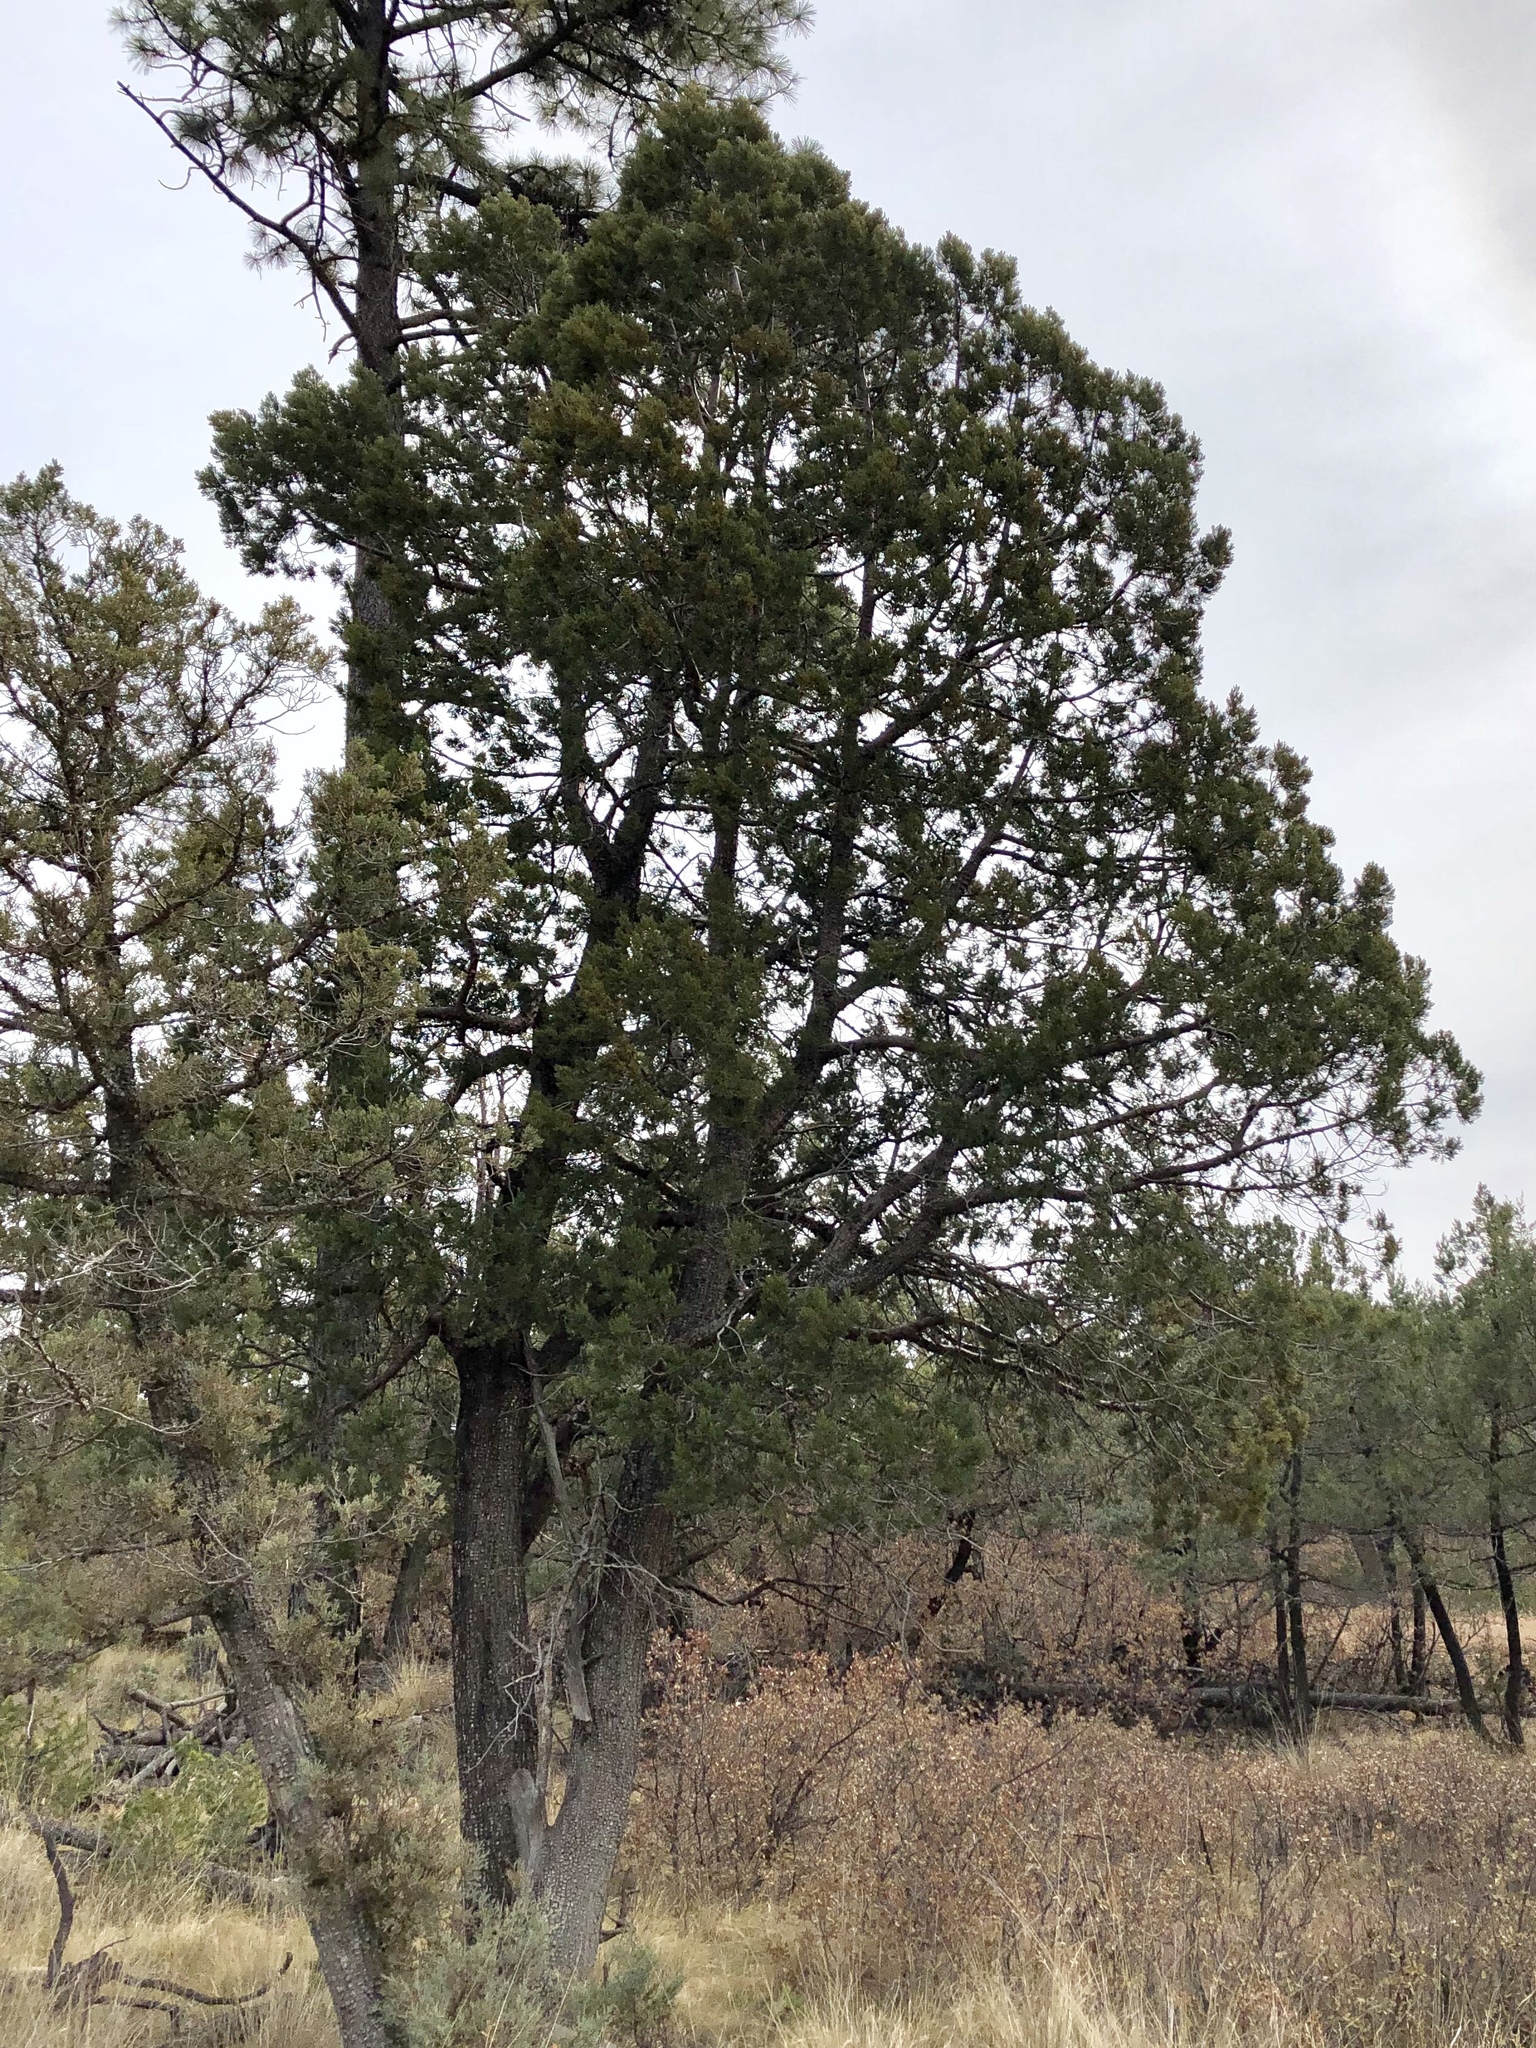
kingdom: Plantae
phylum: Tracheophyta
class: Pinopsida
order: Pinales
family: Cupressaceae
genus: Juniperus
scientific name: Juniperus deppeana
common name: Alligator juniper
